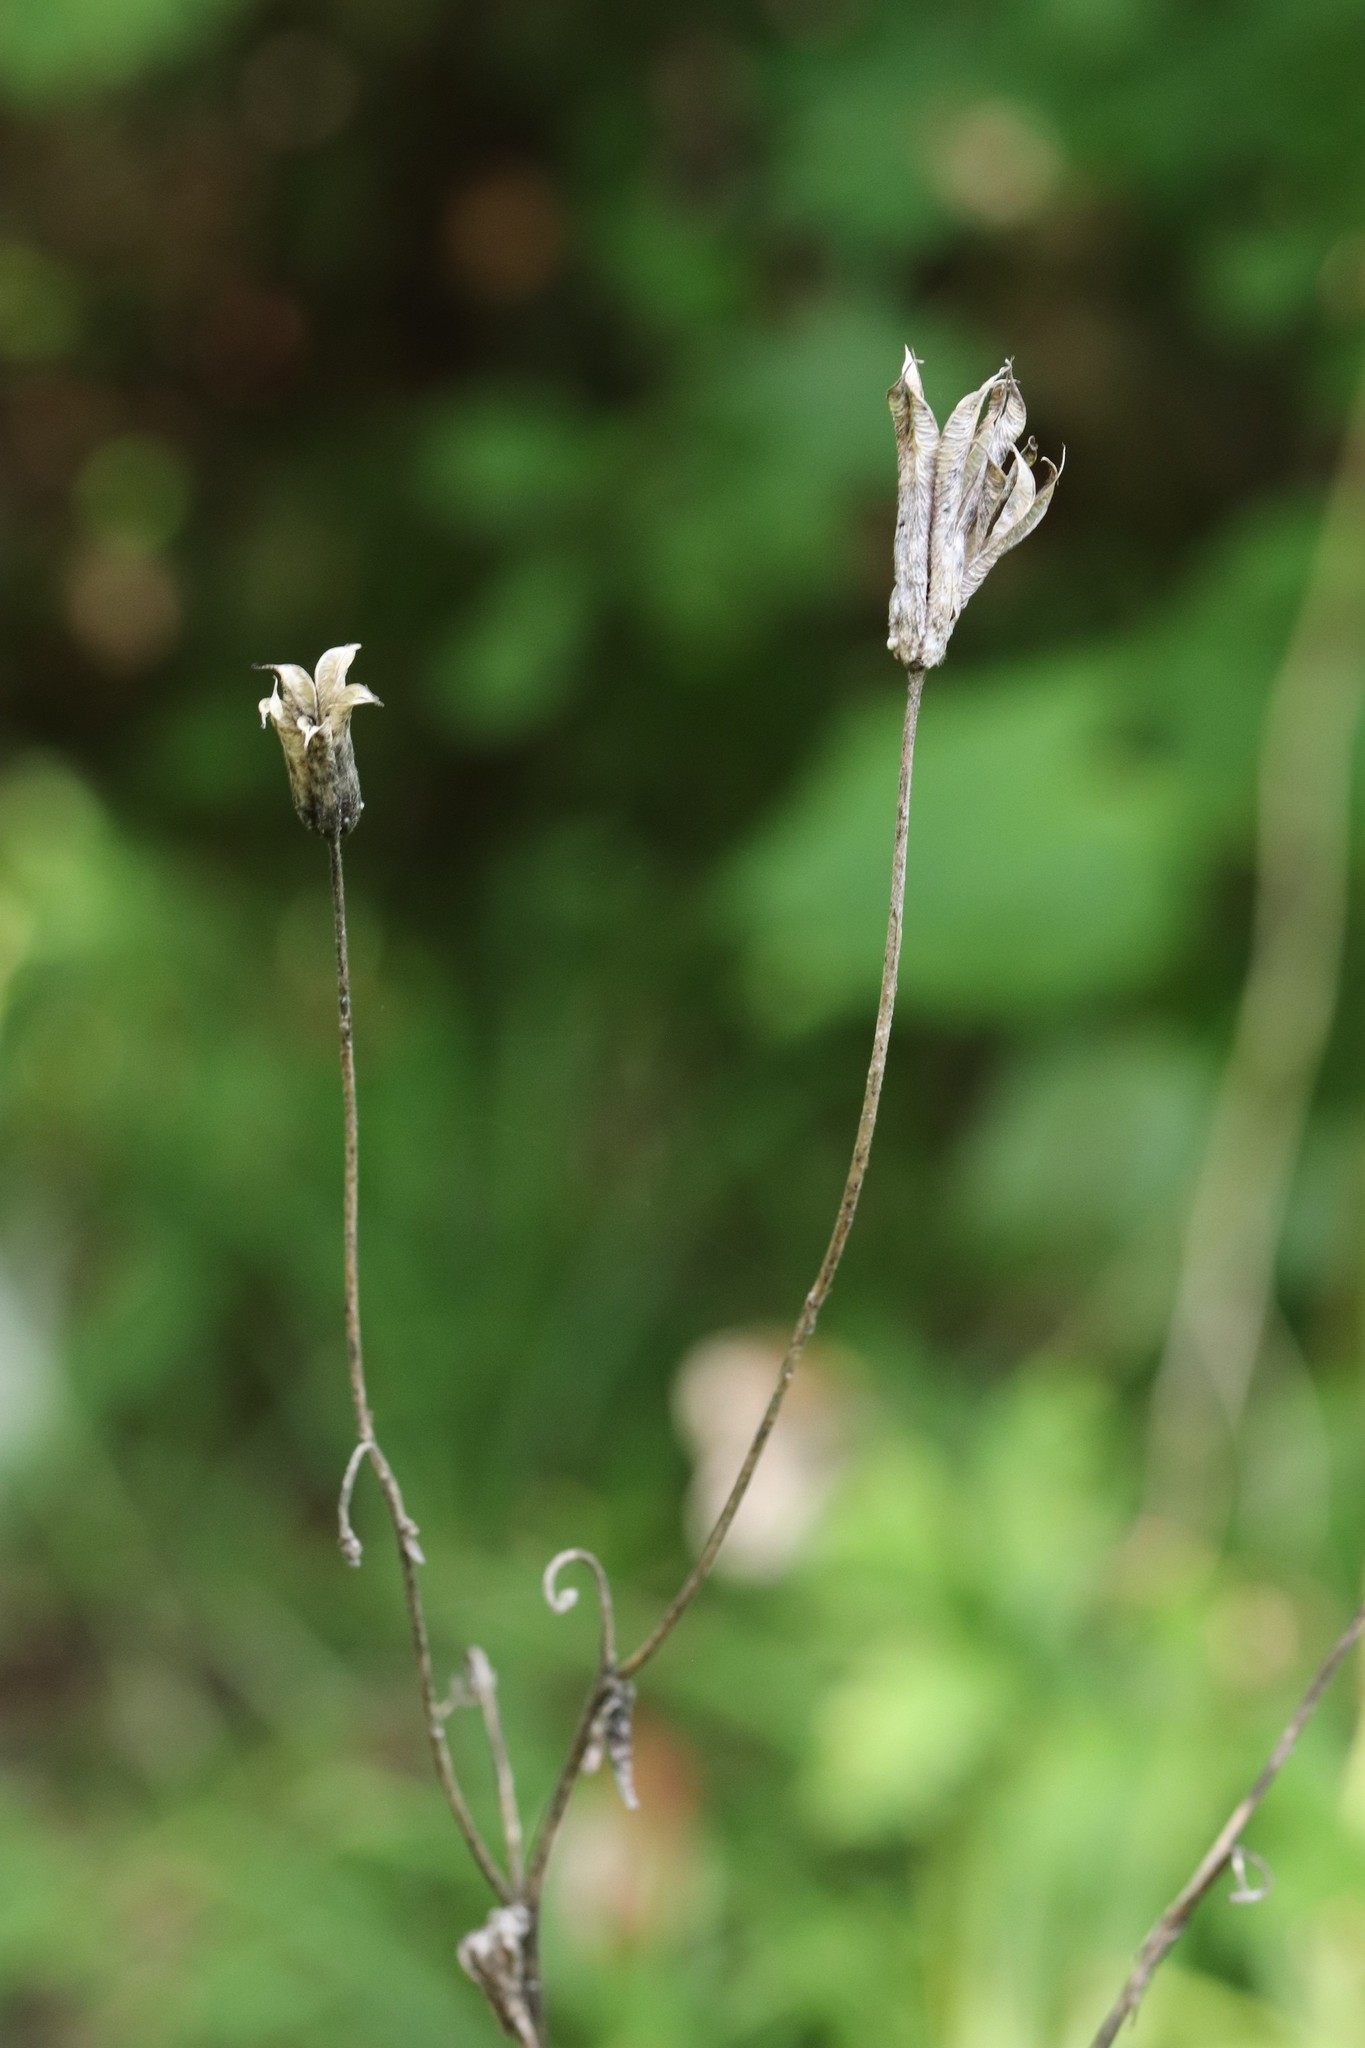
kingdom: Plantae
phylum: Tracheophyta
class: Magnoliopsida
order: Ranunculales
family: Ranunculaceae
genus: Aquilegia
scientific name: Aquilegia oxysepala
